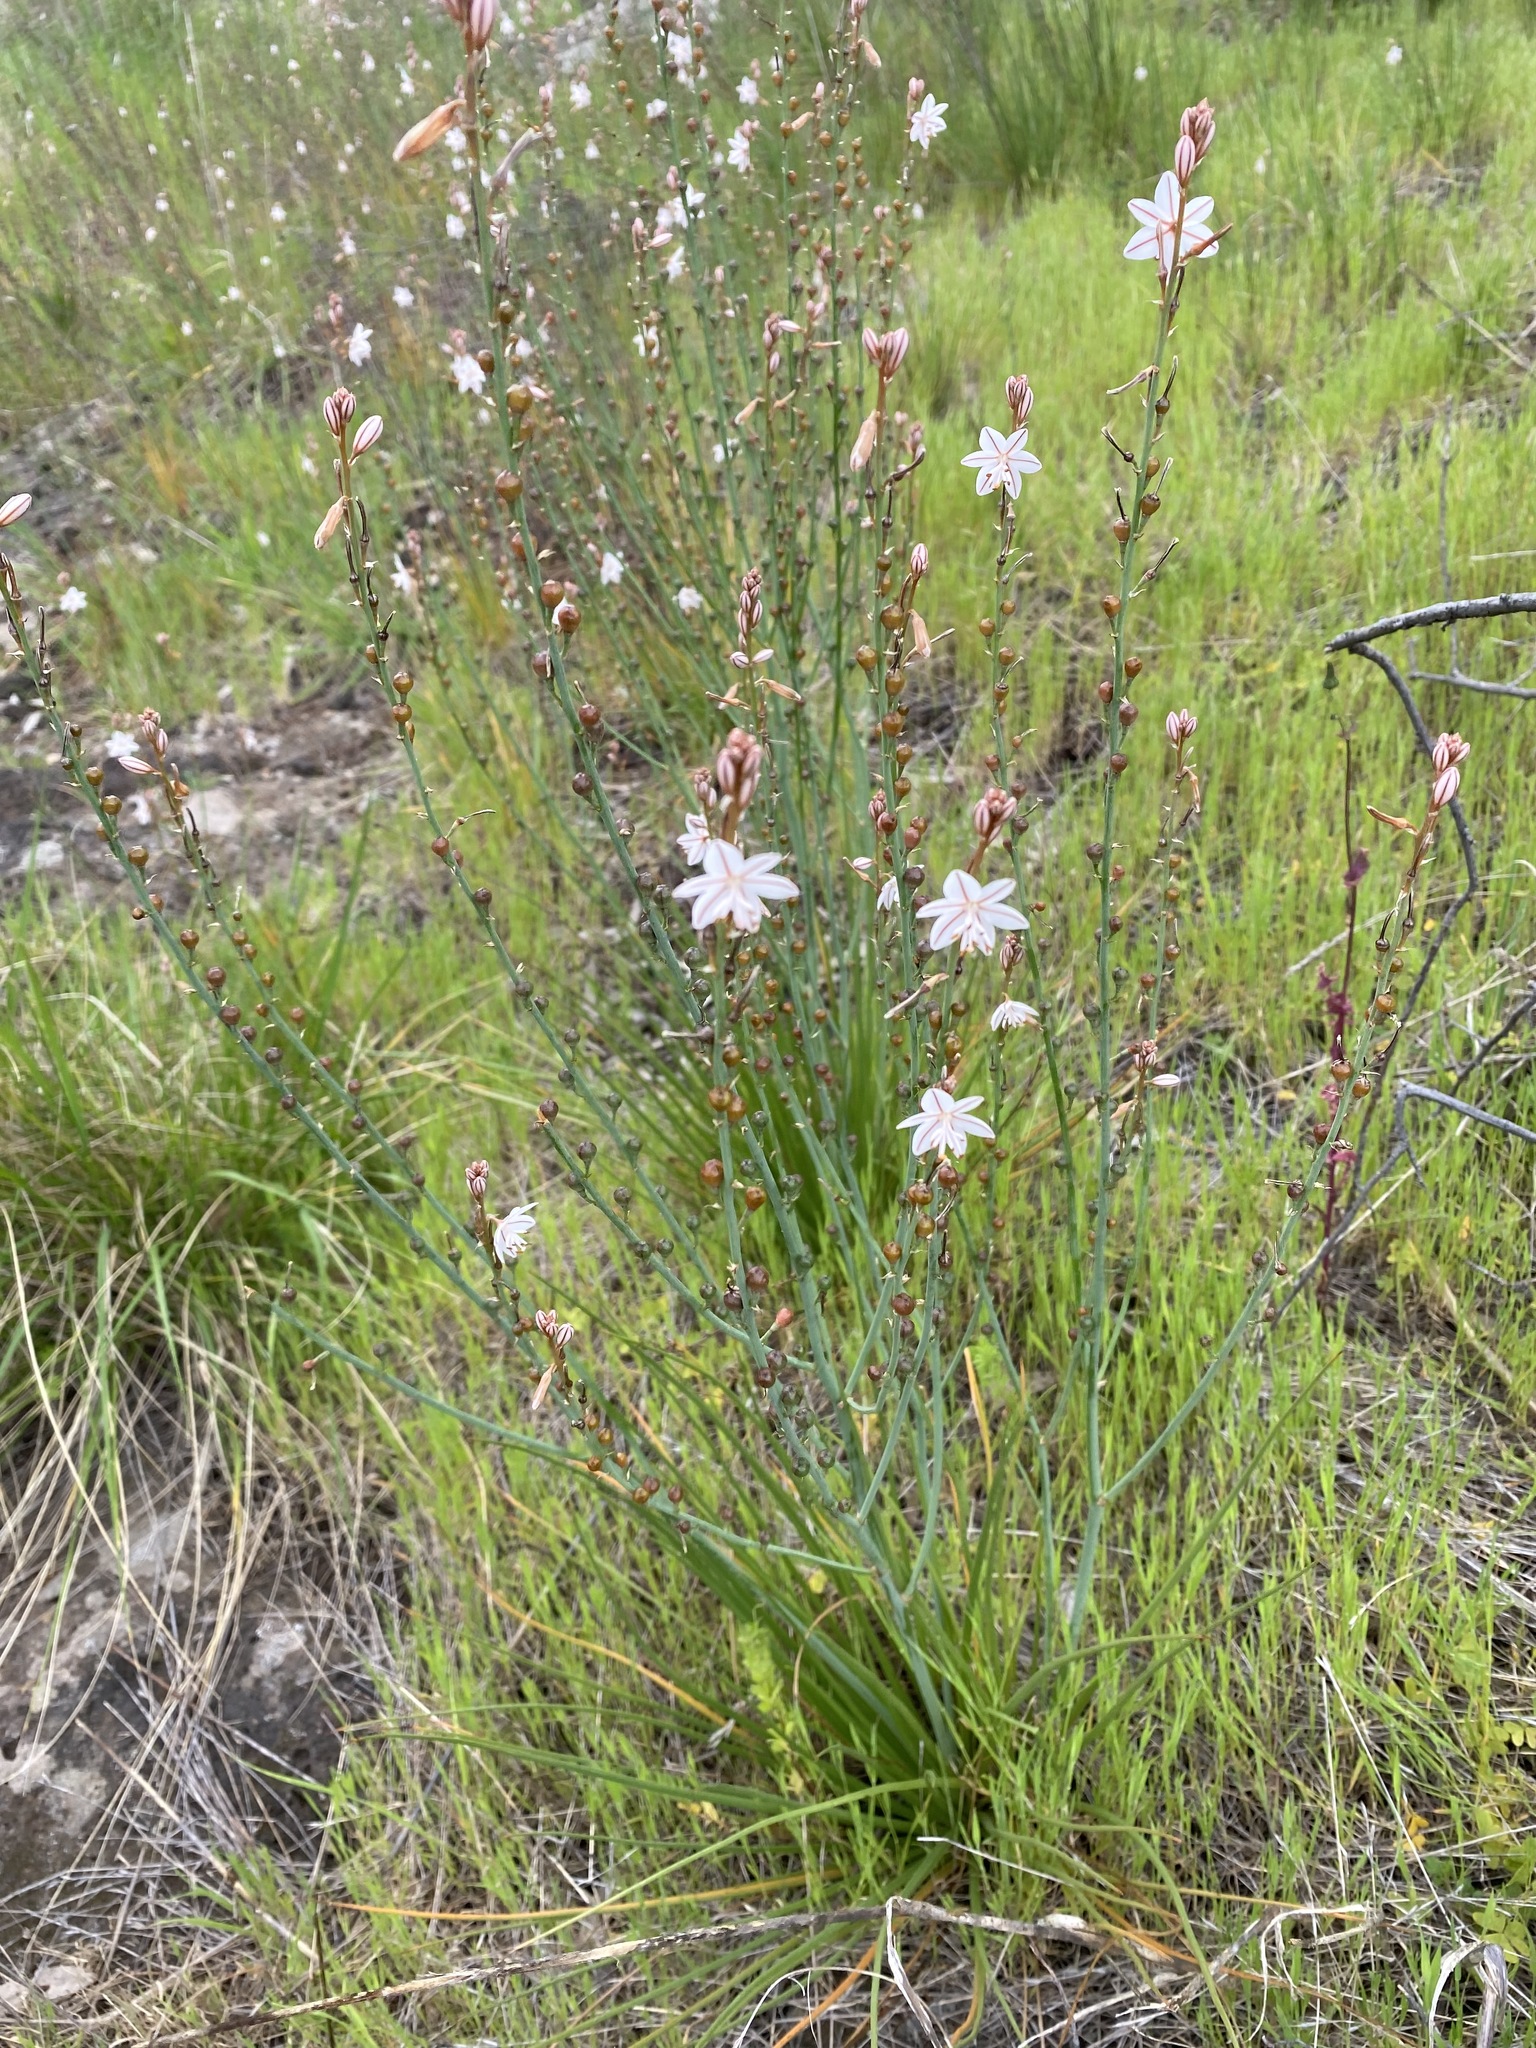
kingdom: Plantae
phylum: Tracheophyta
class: Liliopsida
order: Asparagales
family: Asphodelaceae
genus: Asphodelus
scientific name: Asphodelus fistulosus
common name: Onionweed
